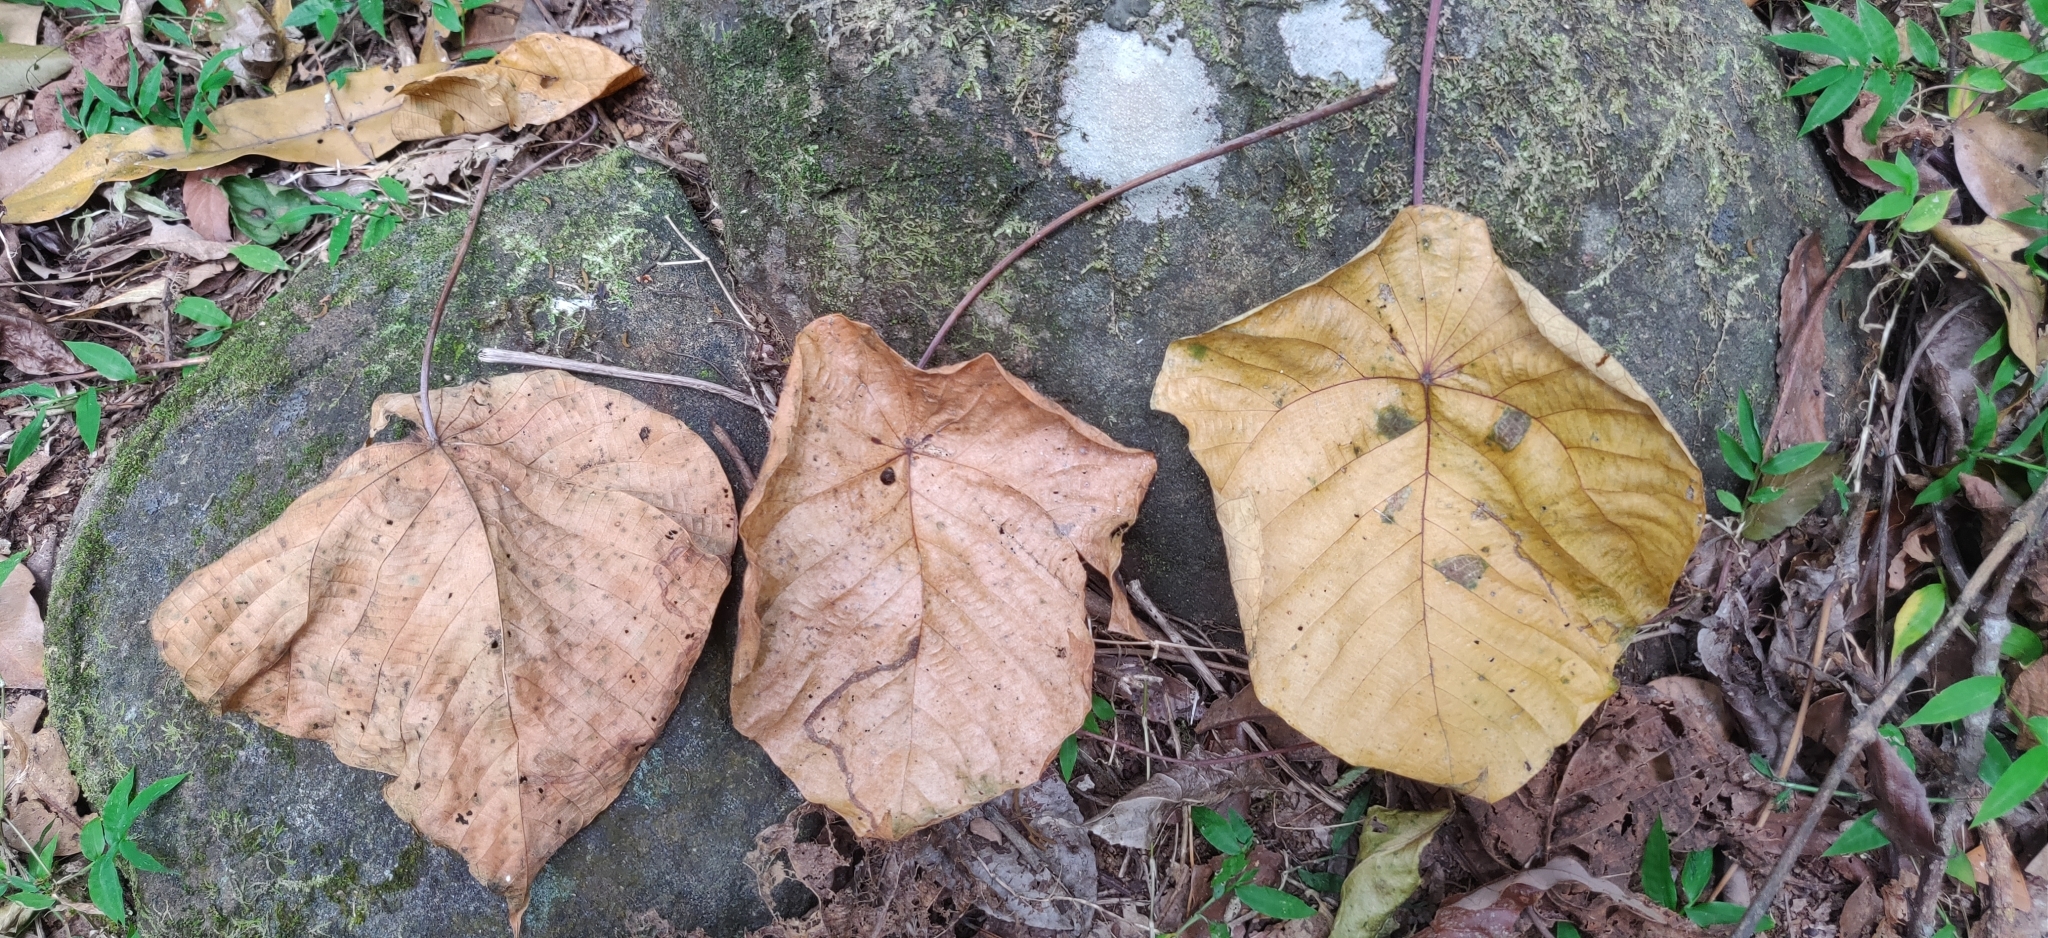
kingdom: Plantae
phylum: Tracheophyta
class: Magnoliopsida
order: Malpighiales
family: Euphorbiaceae
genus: Macaranga
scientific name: Macaranga indica
